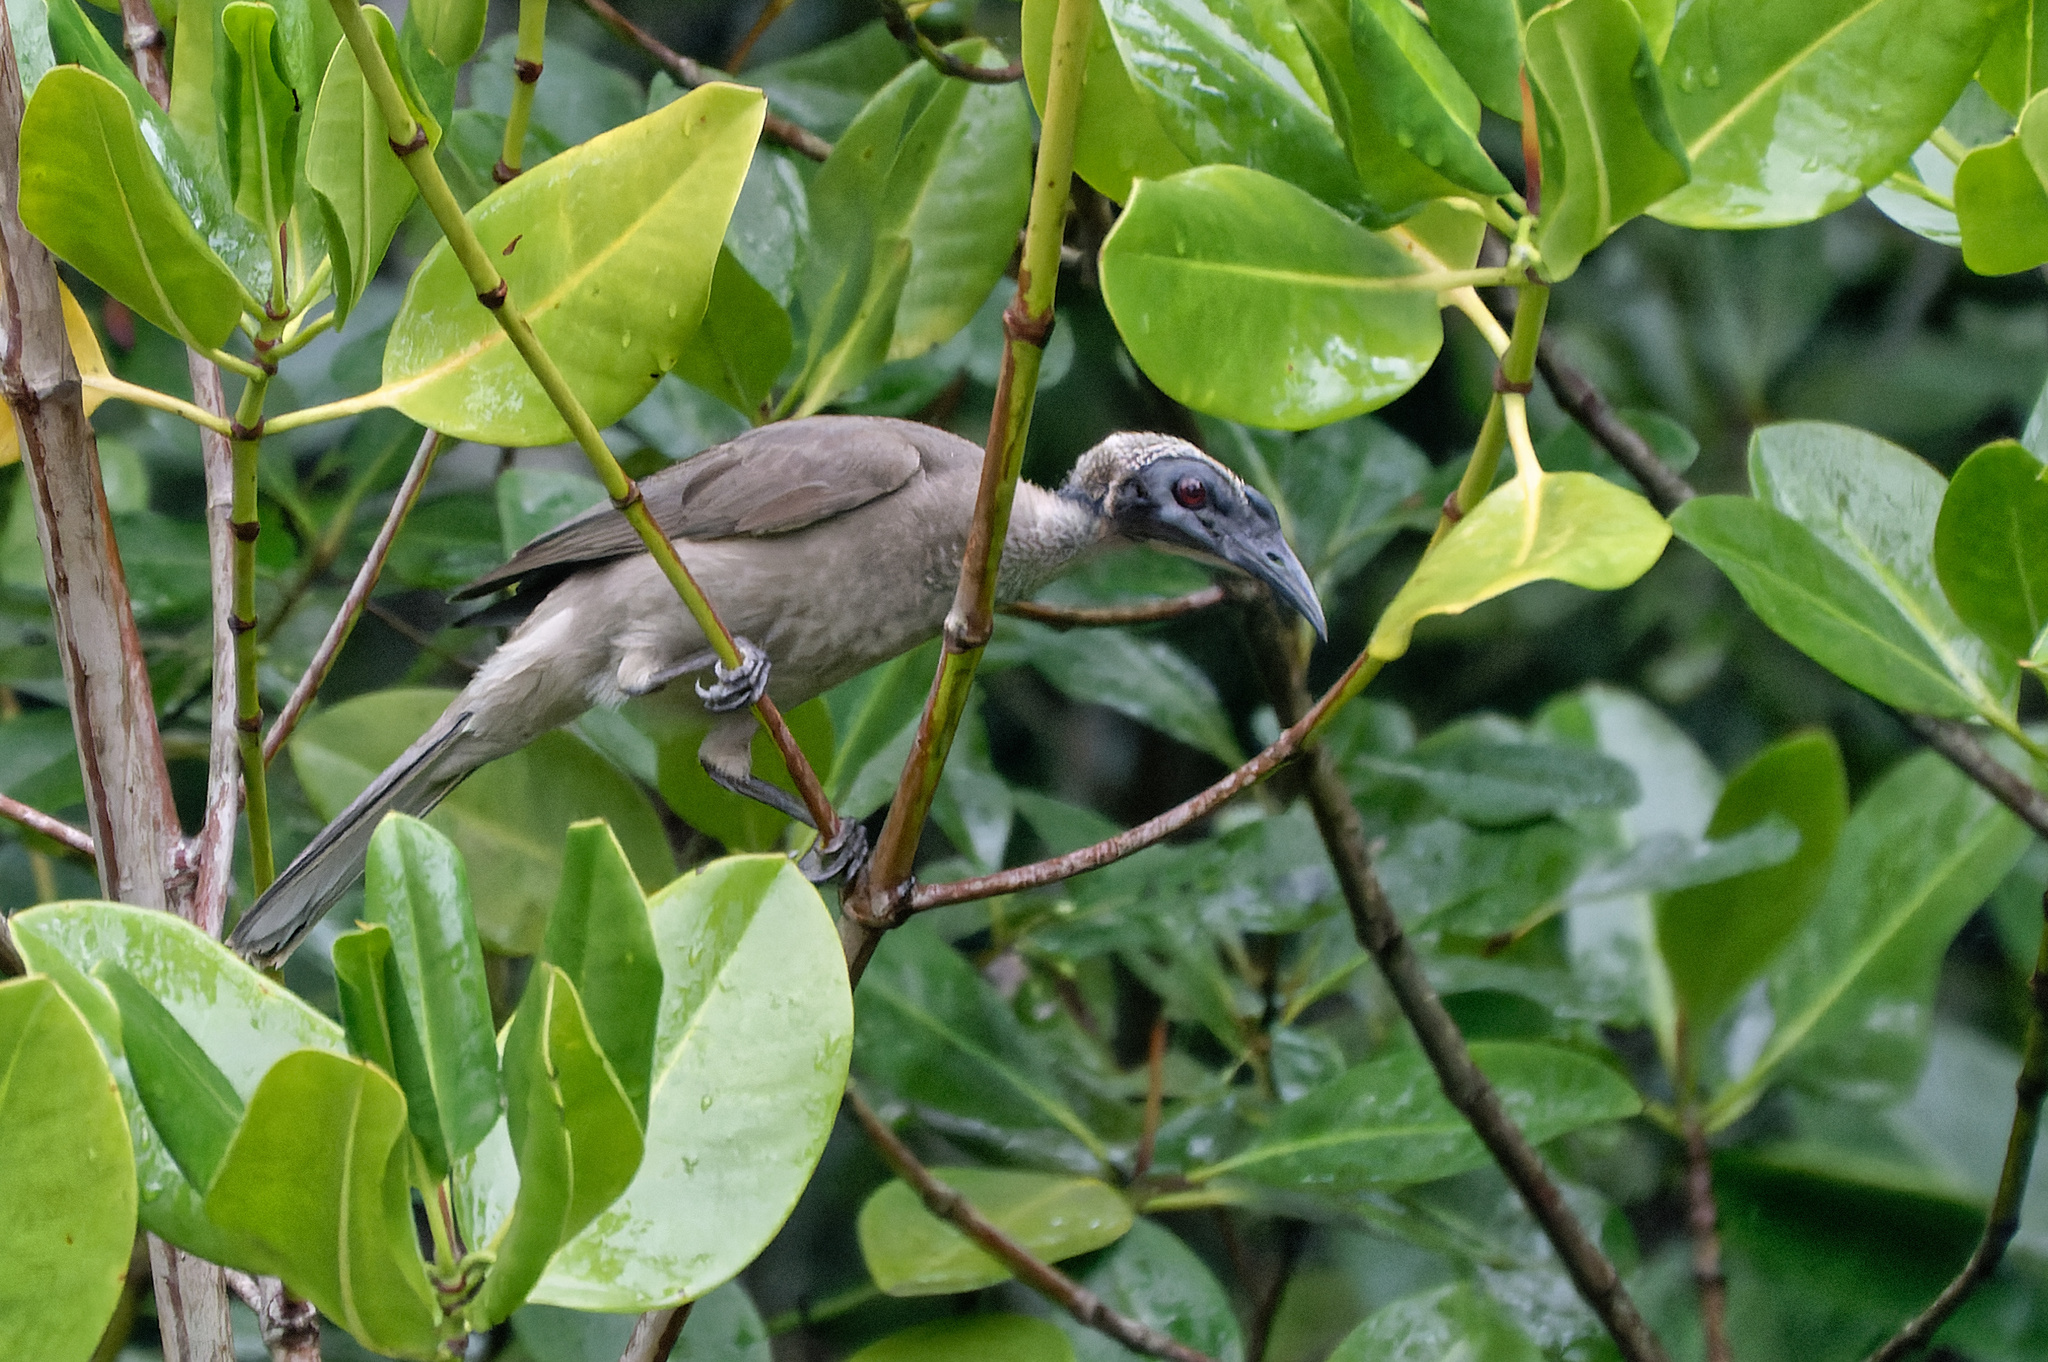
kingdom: Animalia
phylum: Chordata
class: Aves
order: Passeriformes
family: Meliphagidae
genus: Philemon
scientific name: Philemon buceroides
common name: Helmeted friarbird
